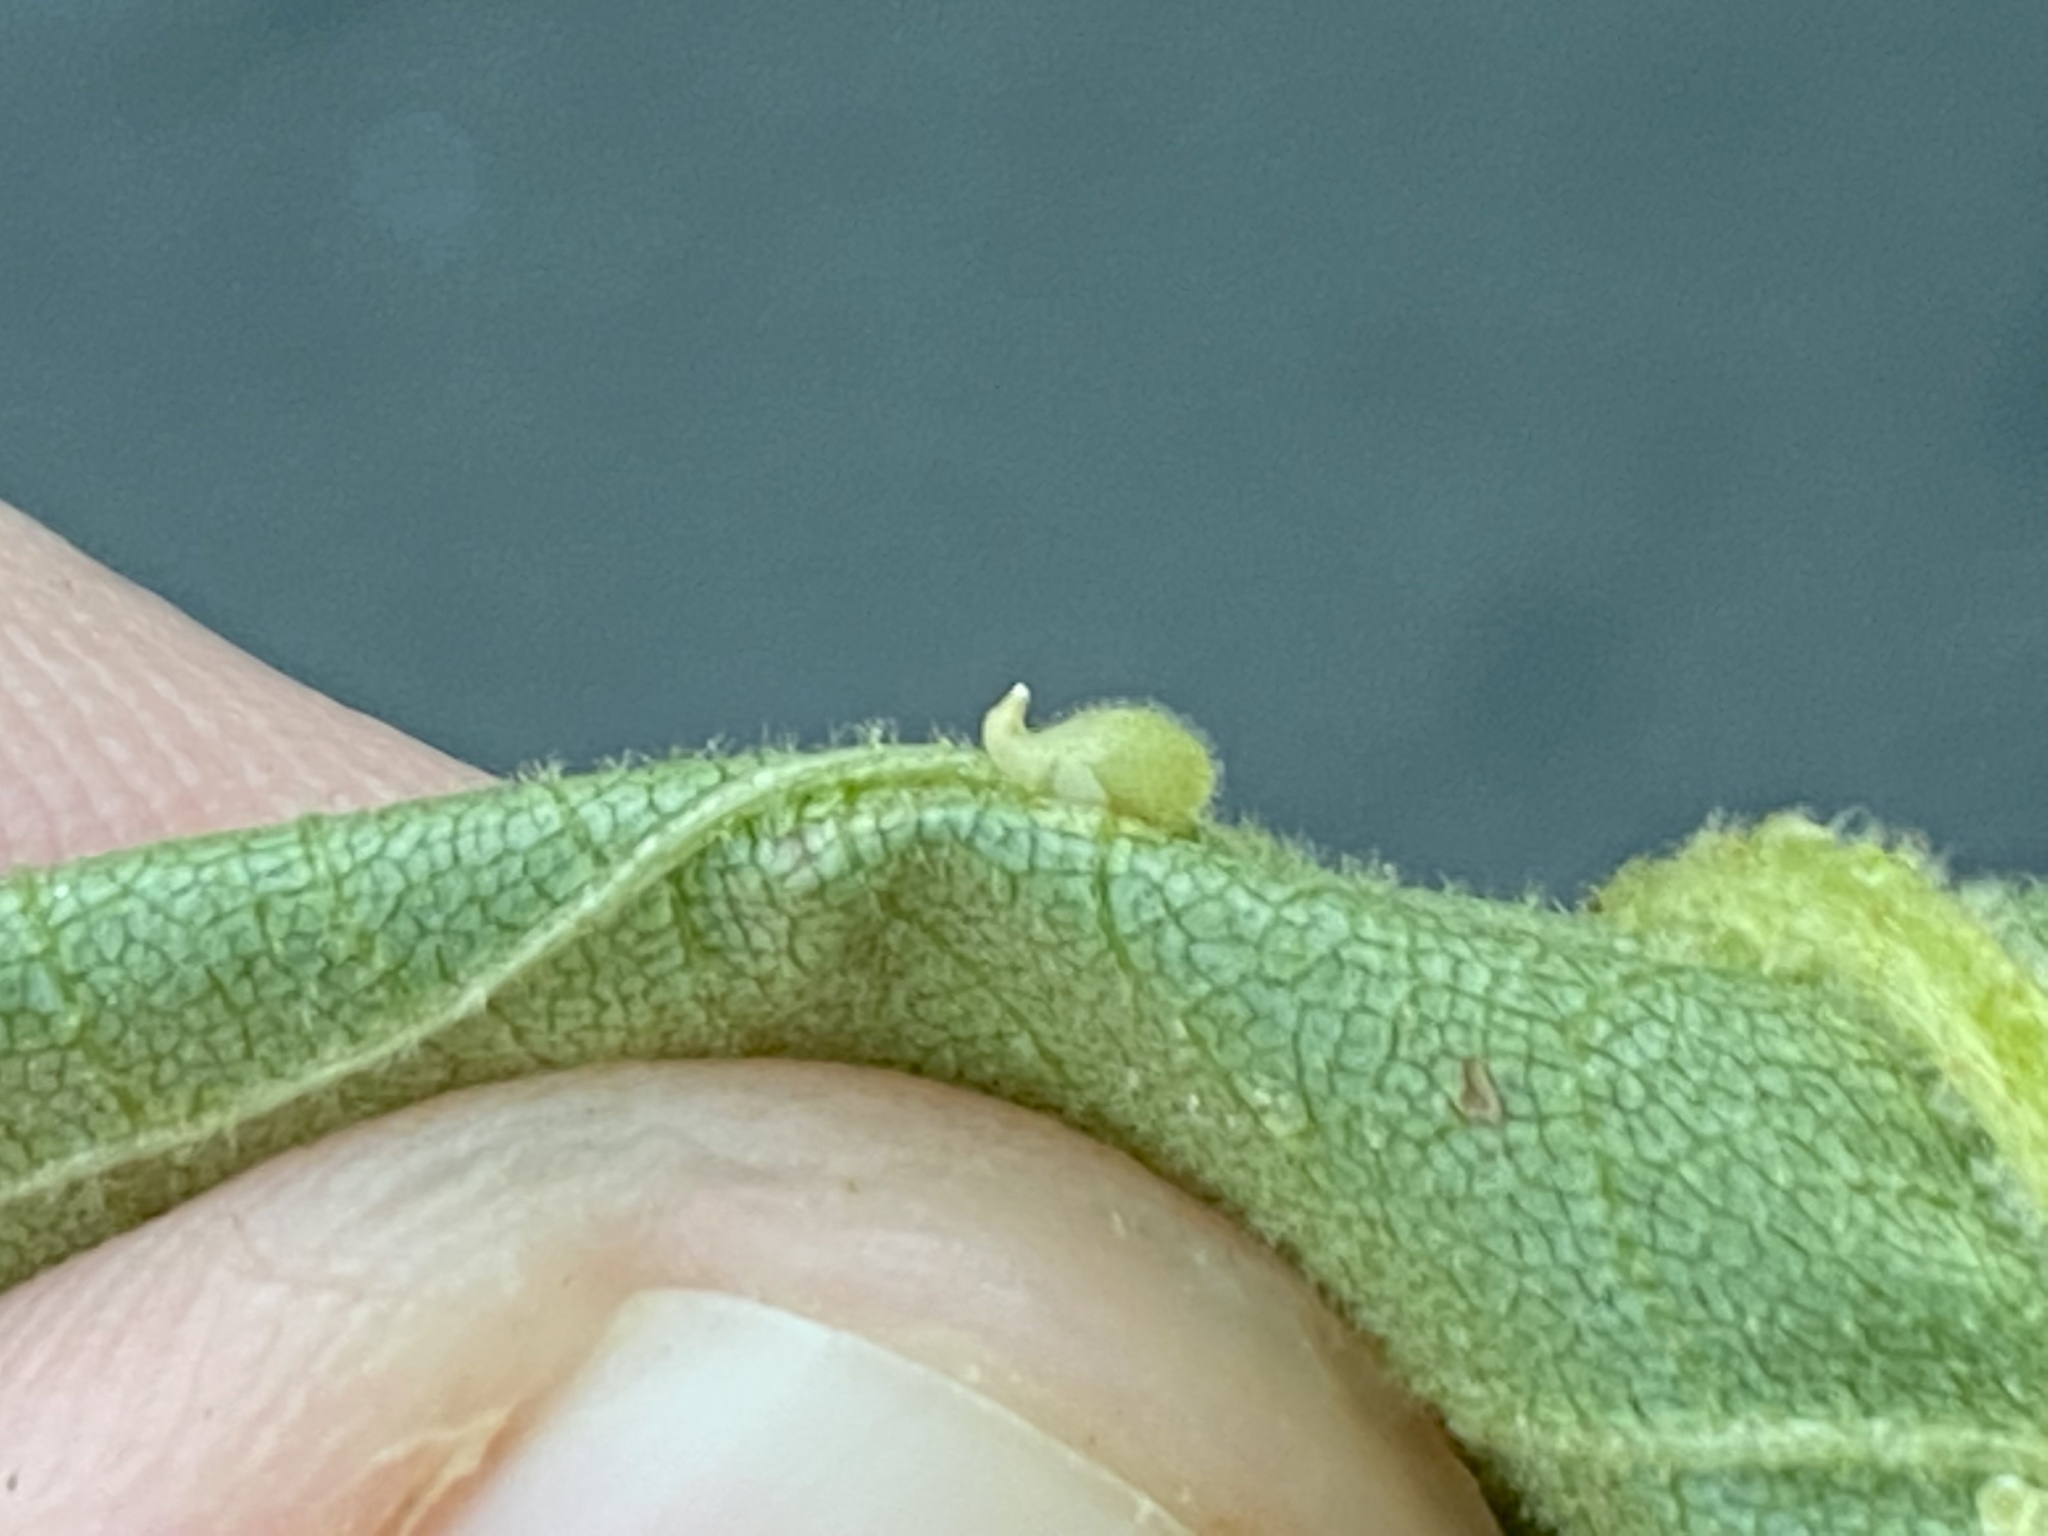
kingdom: Animalia
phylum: Arthropoda
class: Insecta
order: Diptera
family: Cecidomyiidae
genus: Caryomyia
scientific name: Caryomyia eumaris
